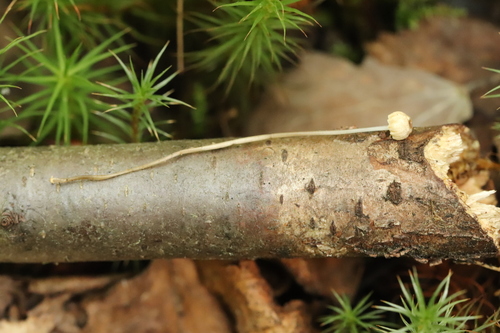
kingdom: Fungi
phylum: Basidiomycota
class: Agaricomycetes
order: Agaricales
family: Mycenaceae
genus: Roridomyces
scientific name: Roridomyces roridus
